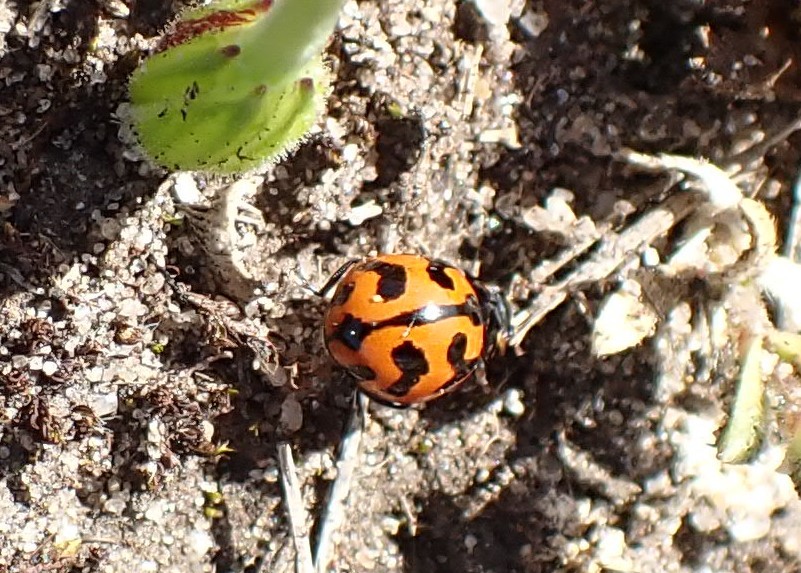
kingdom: Animalia
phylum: Arthropoda
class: Insecta
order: Coleoptera
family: Coccinellidae
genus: Coccinella
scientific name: Coccinella transversalis
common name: Transverse lady beetle
